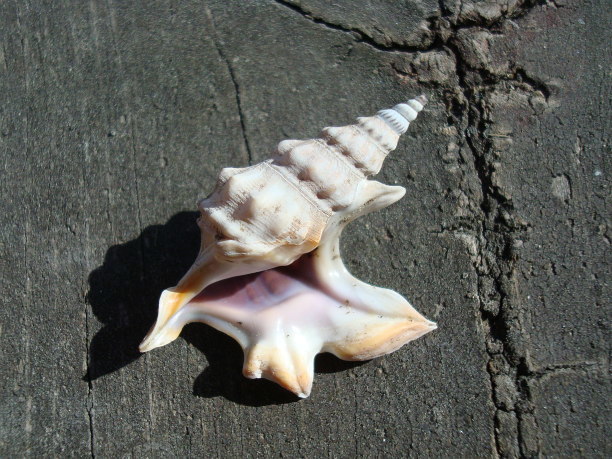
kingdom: Animalia
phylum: Mollusca
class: Gastropoda
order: Littorinimorpha
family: Aporrhaidae
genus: Aporrhais
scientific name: Aporrhais pespelecani
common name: Common pelican’s foot
